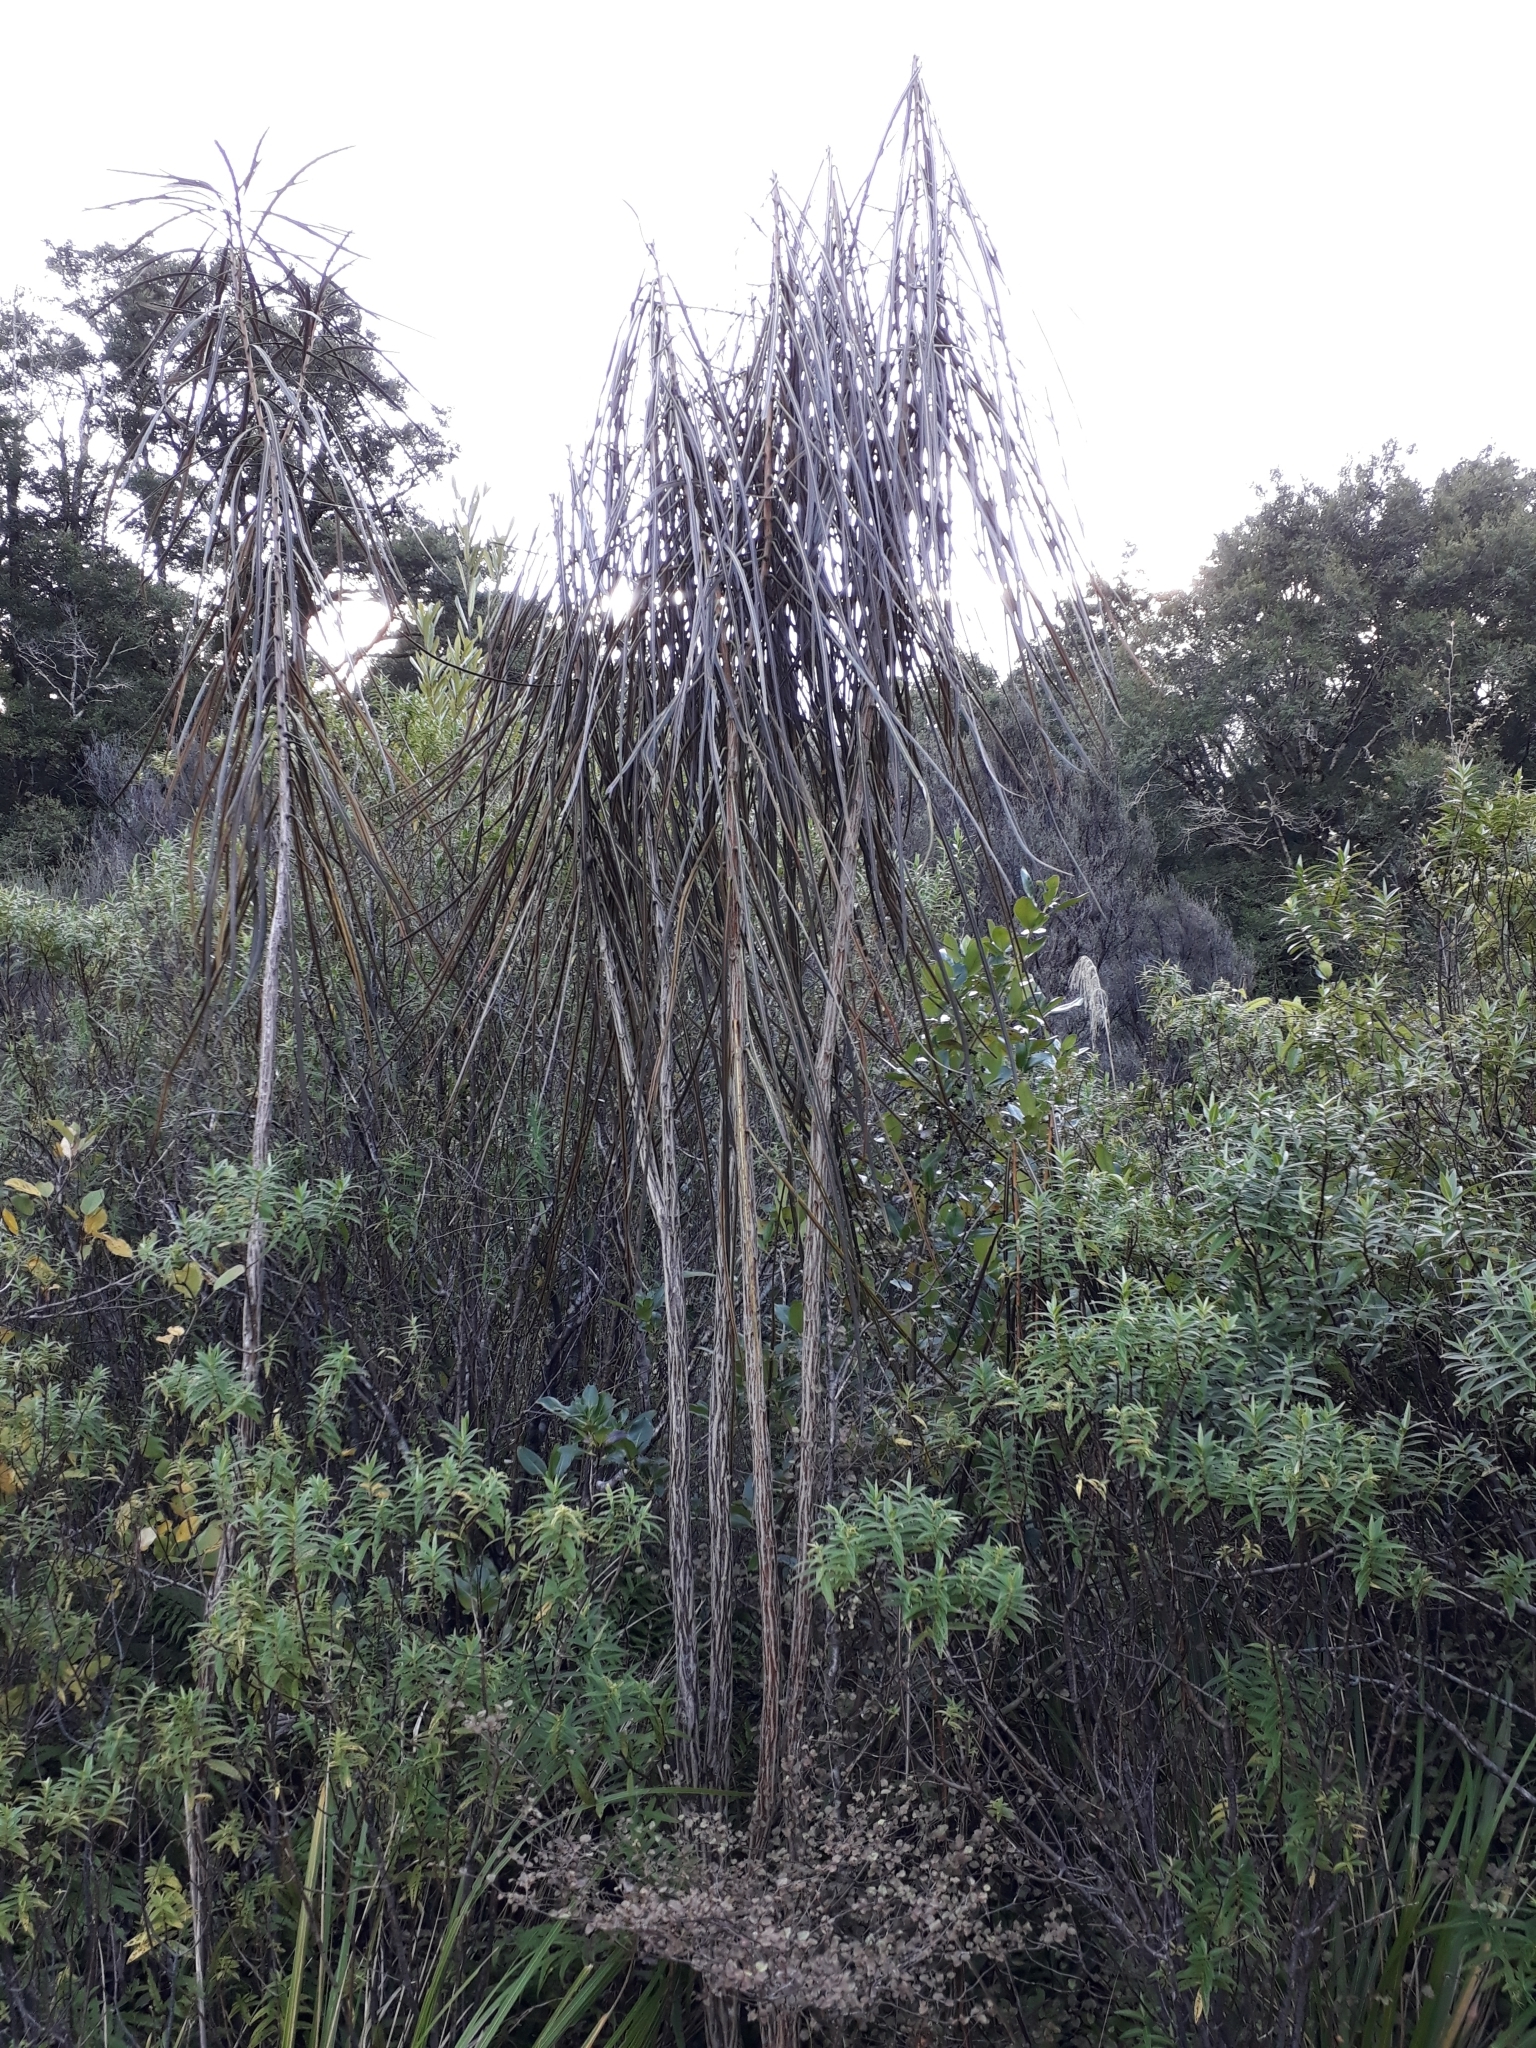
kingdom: Plantae
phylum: Tracheophyta
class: Magnoliopsida
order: Apiales
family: Araliaceae
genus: Pseudopanax
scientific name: Pseudopanax crassifolius
